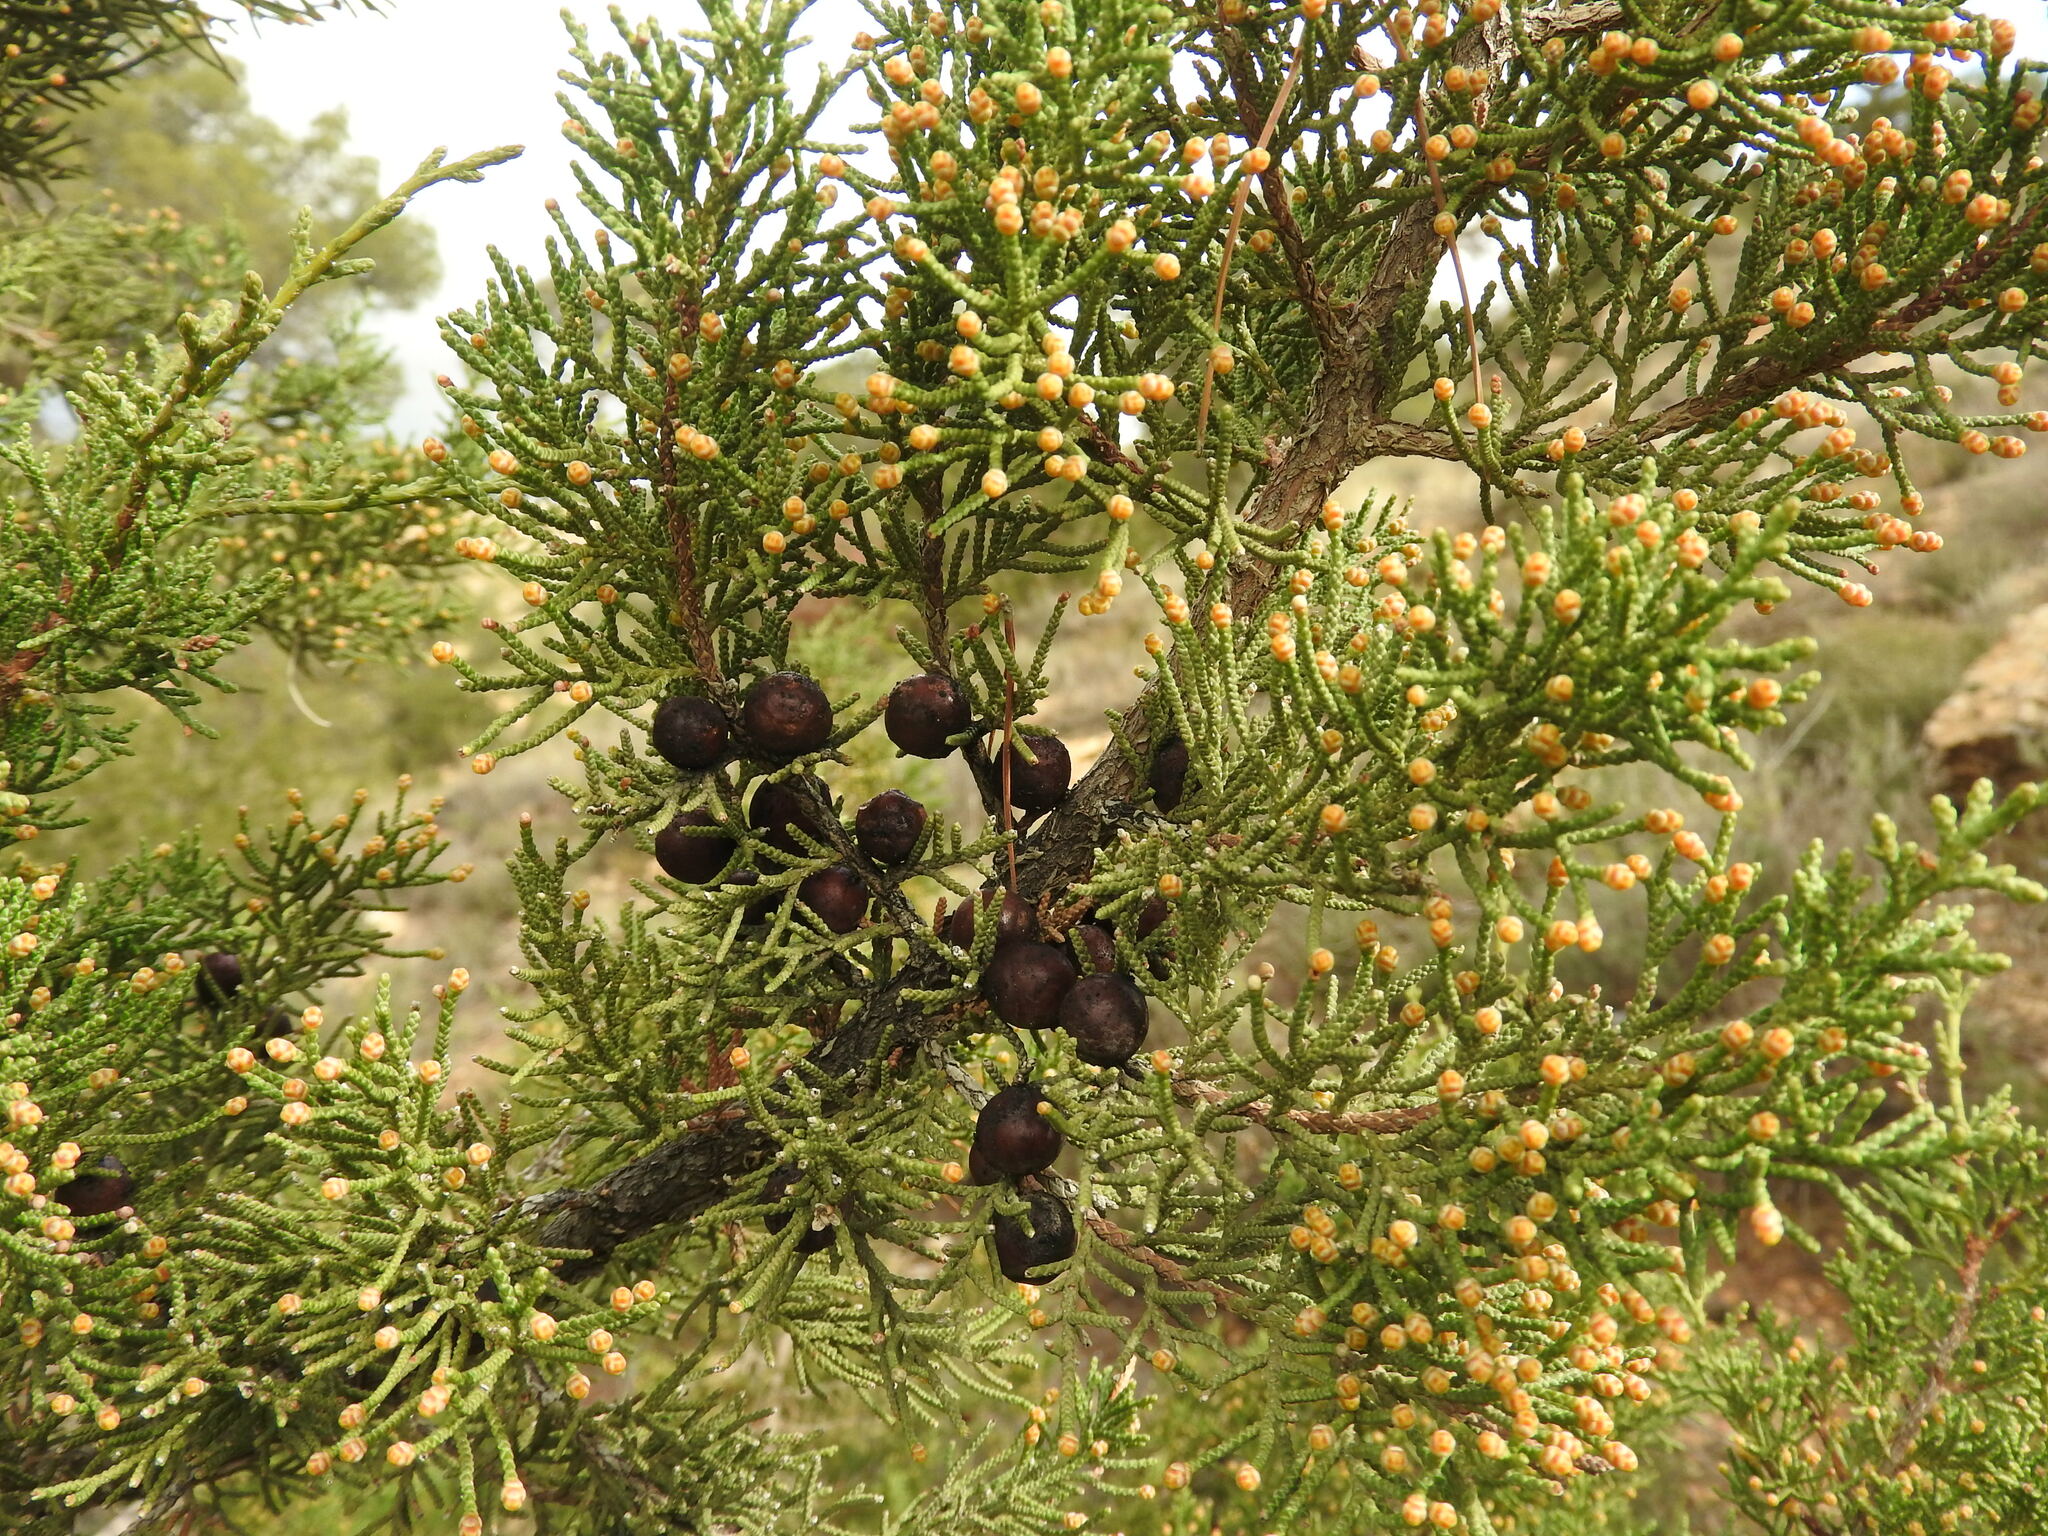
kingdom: Plantae
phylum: Tracheophyta
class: Pinopsida
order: Pinales
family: Cupressaceae
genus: Juniperus
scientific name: Juniperus phoenicea
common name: Phoenician juniper
